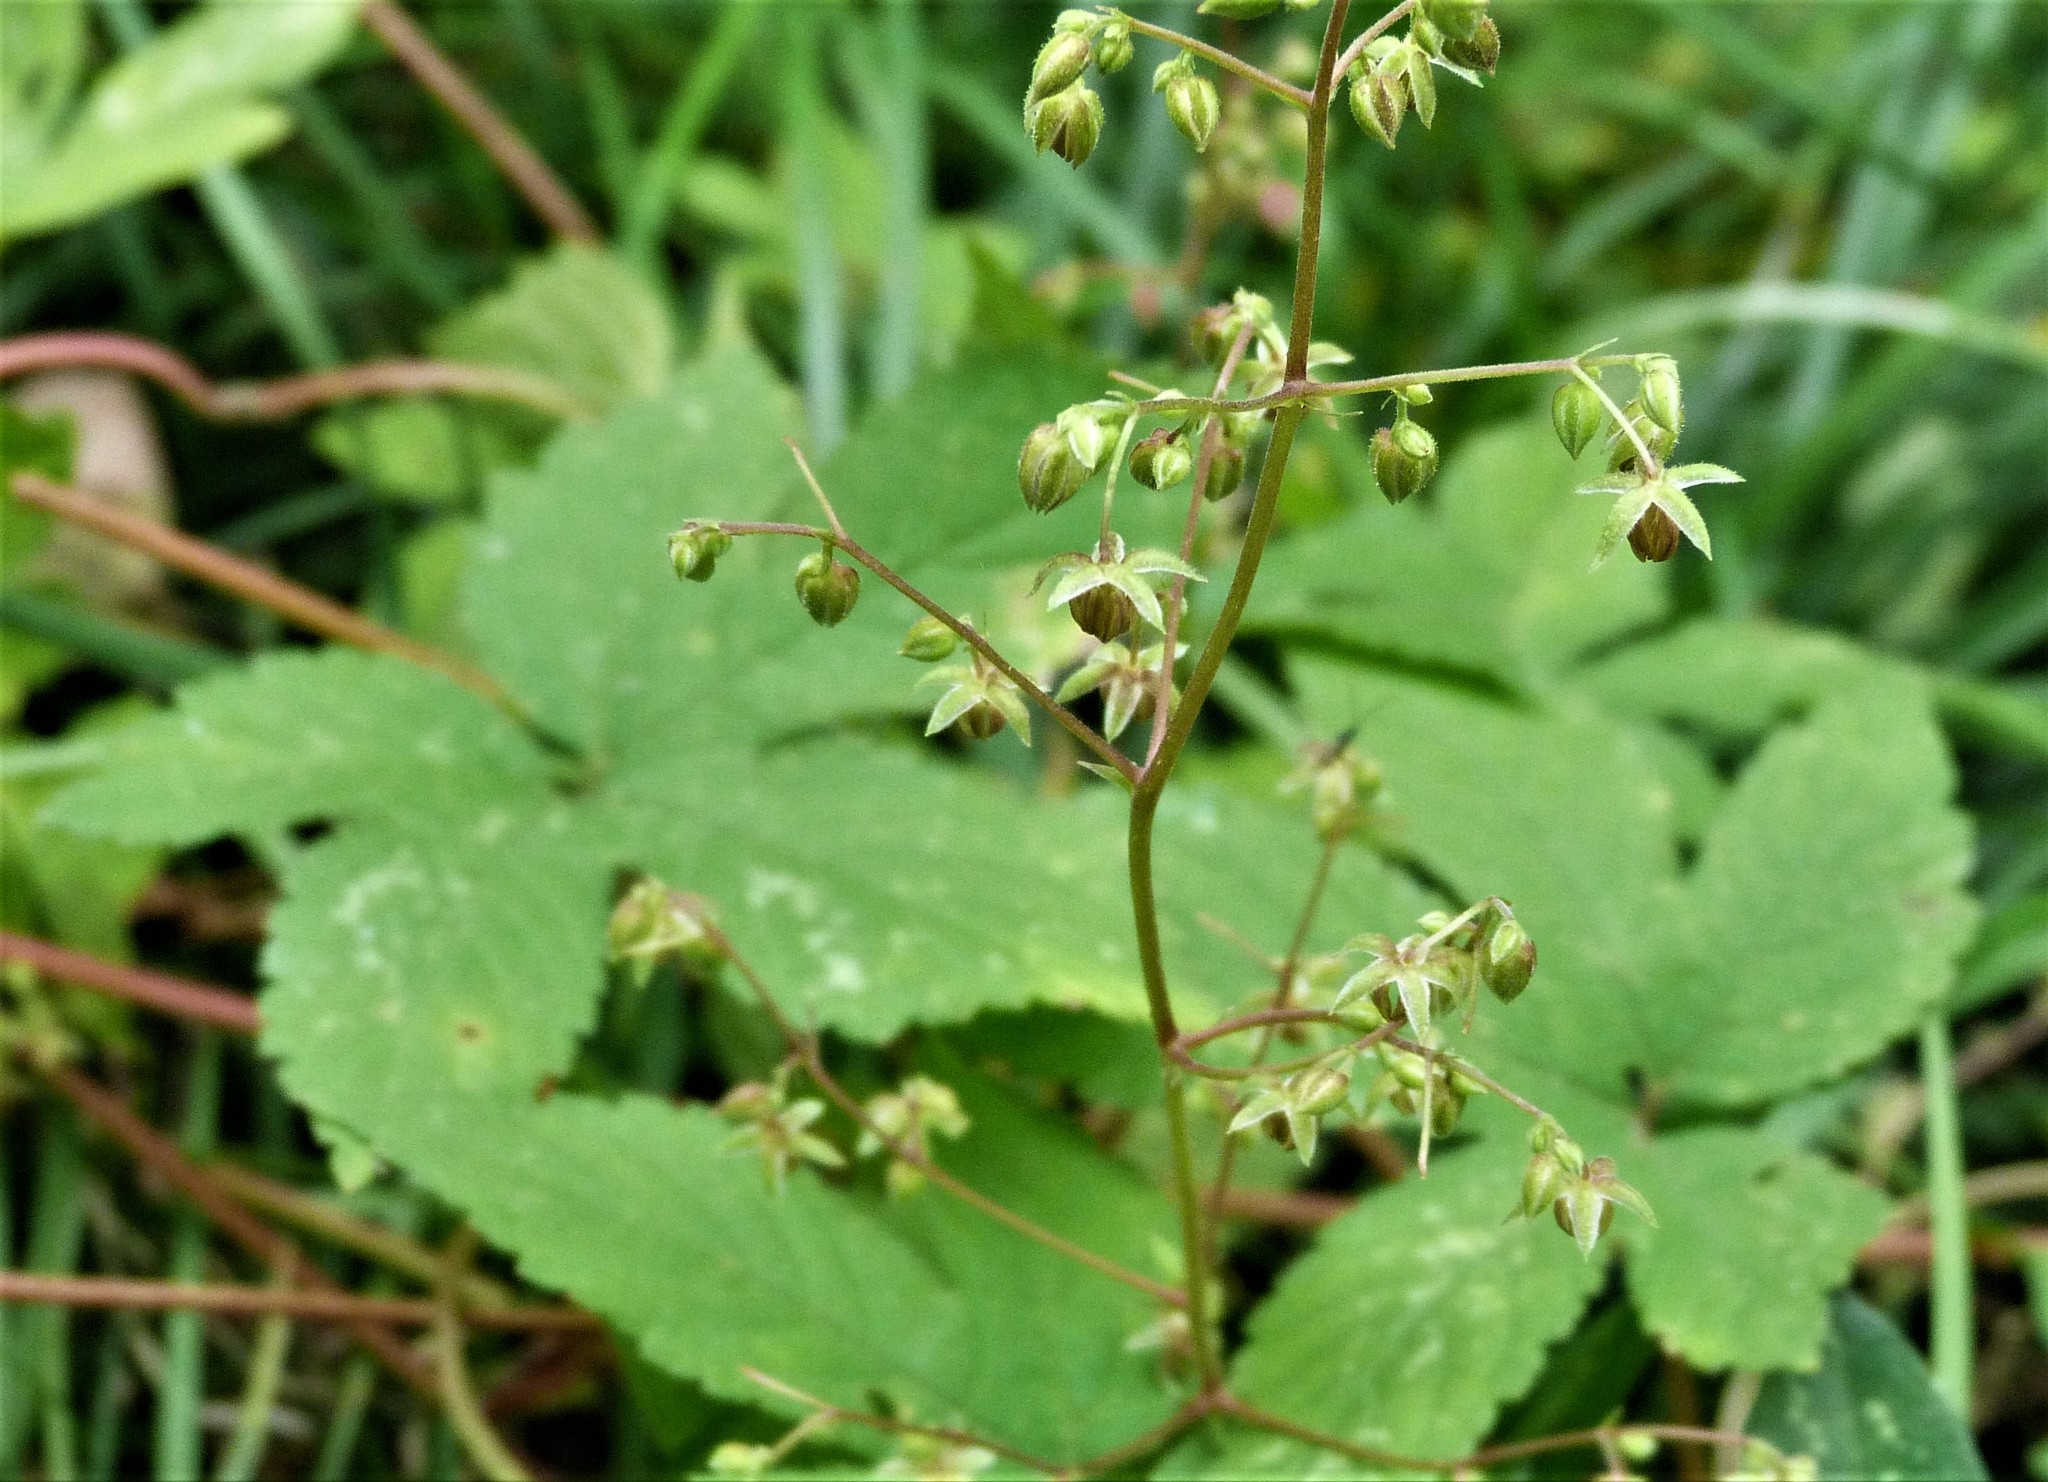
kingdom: Plantae
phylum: Tracheophyta
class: Magnoliopsida
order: Rosales
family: Cannabaceae
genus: Humulus
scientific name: Humulus scandens
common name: Japanese hop
